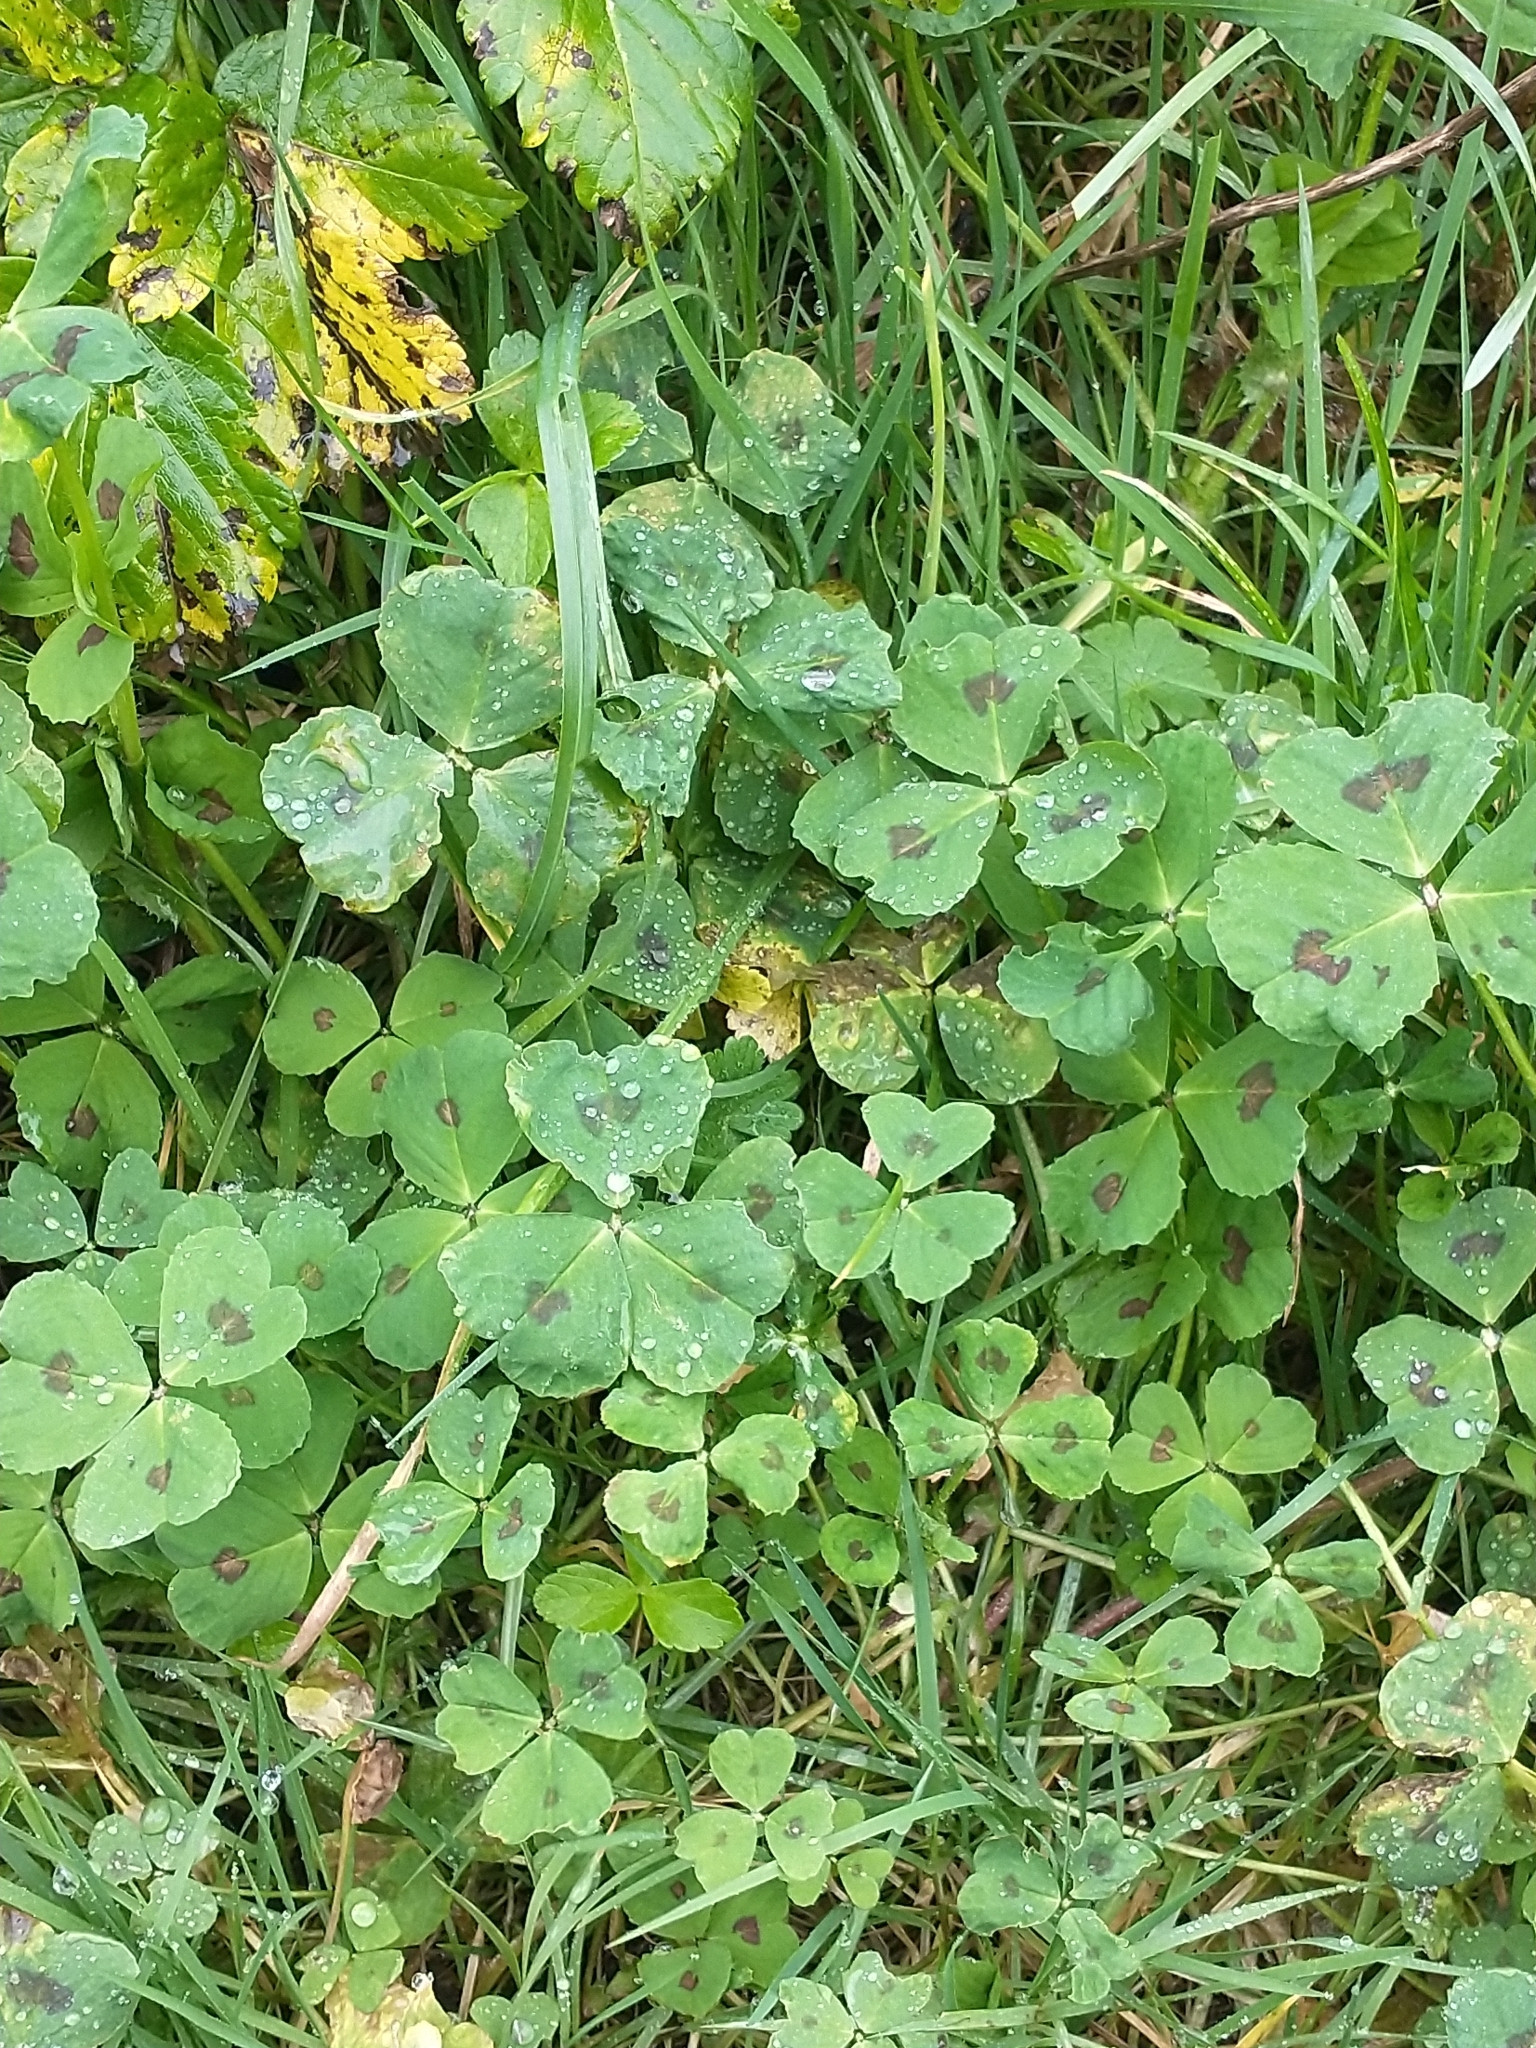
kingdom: Plantae
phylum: Tracheophyta
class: Magnoliopsida
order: Fabales
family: Fabaceae
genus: Medicago
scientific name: Medicago arabica
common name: Spotted medick
